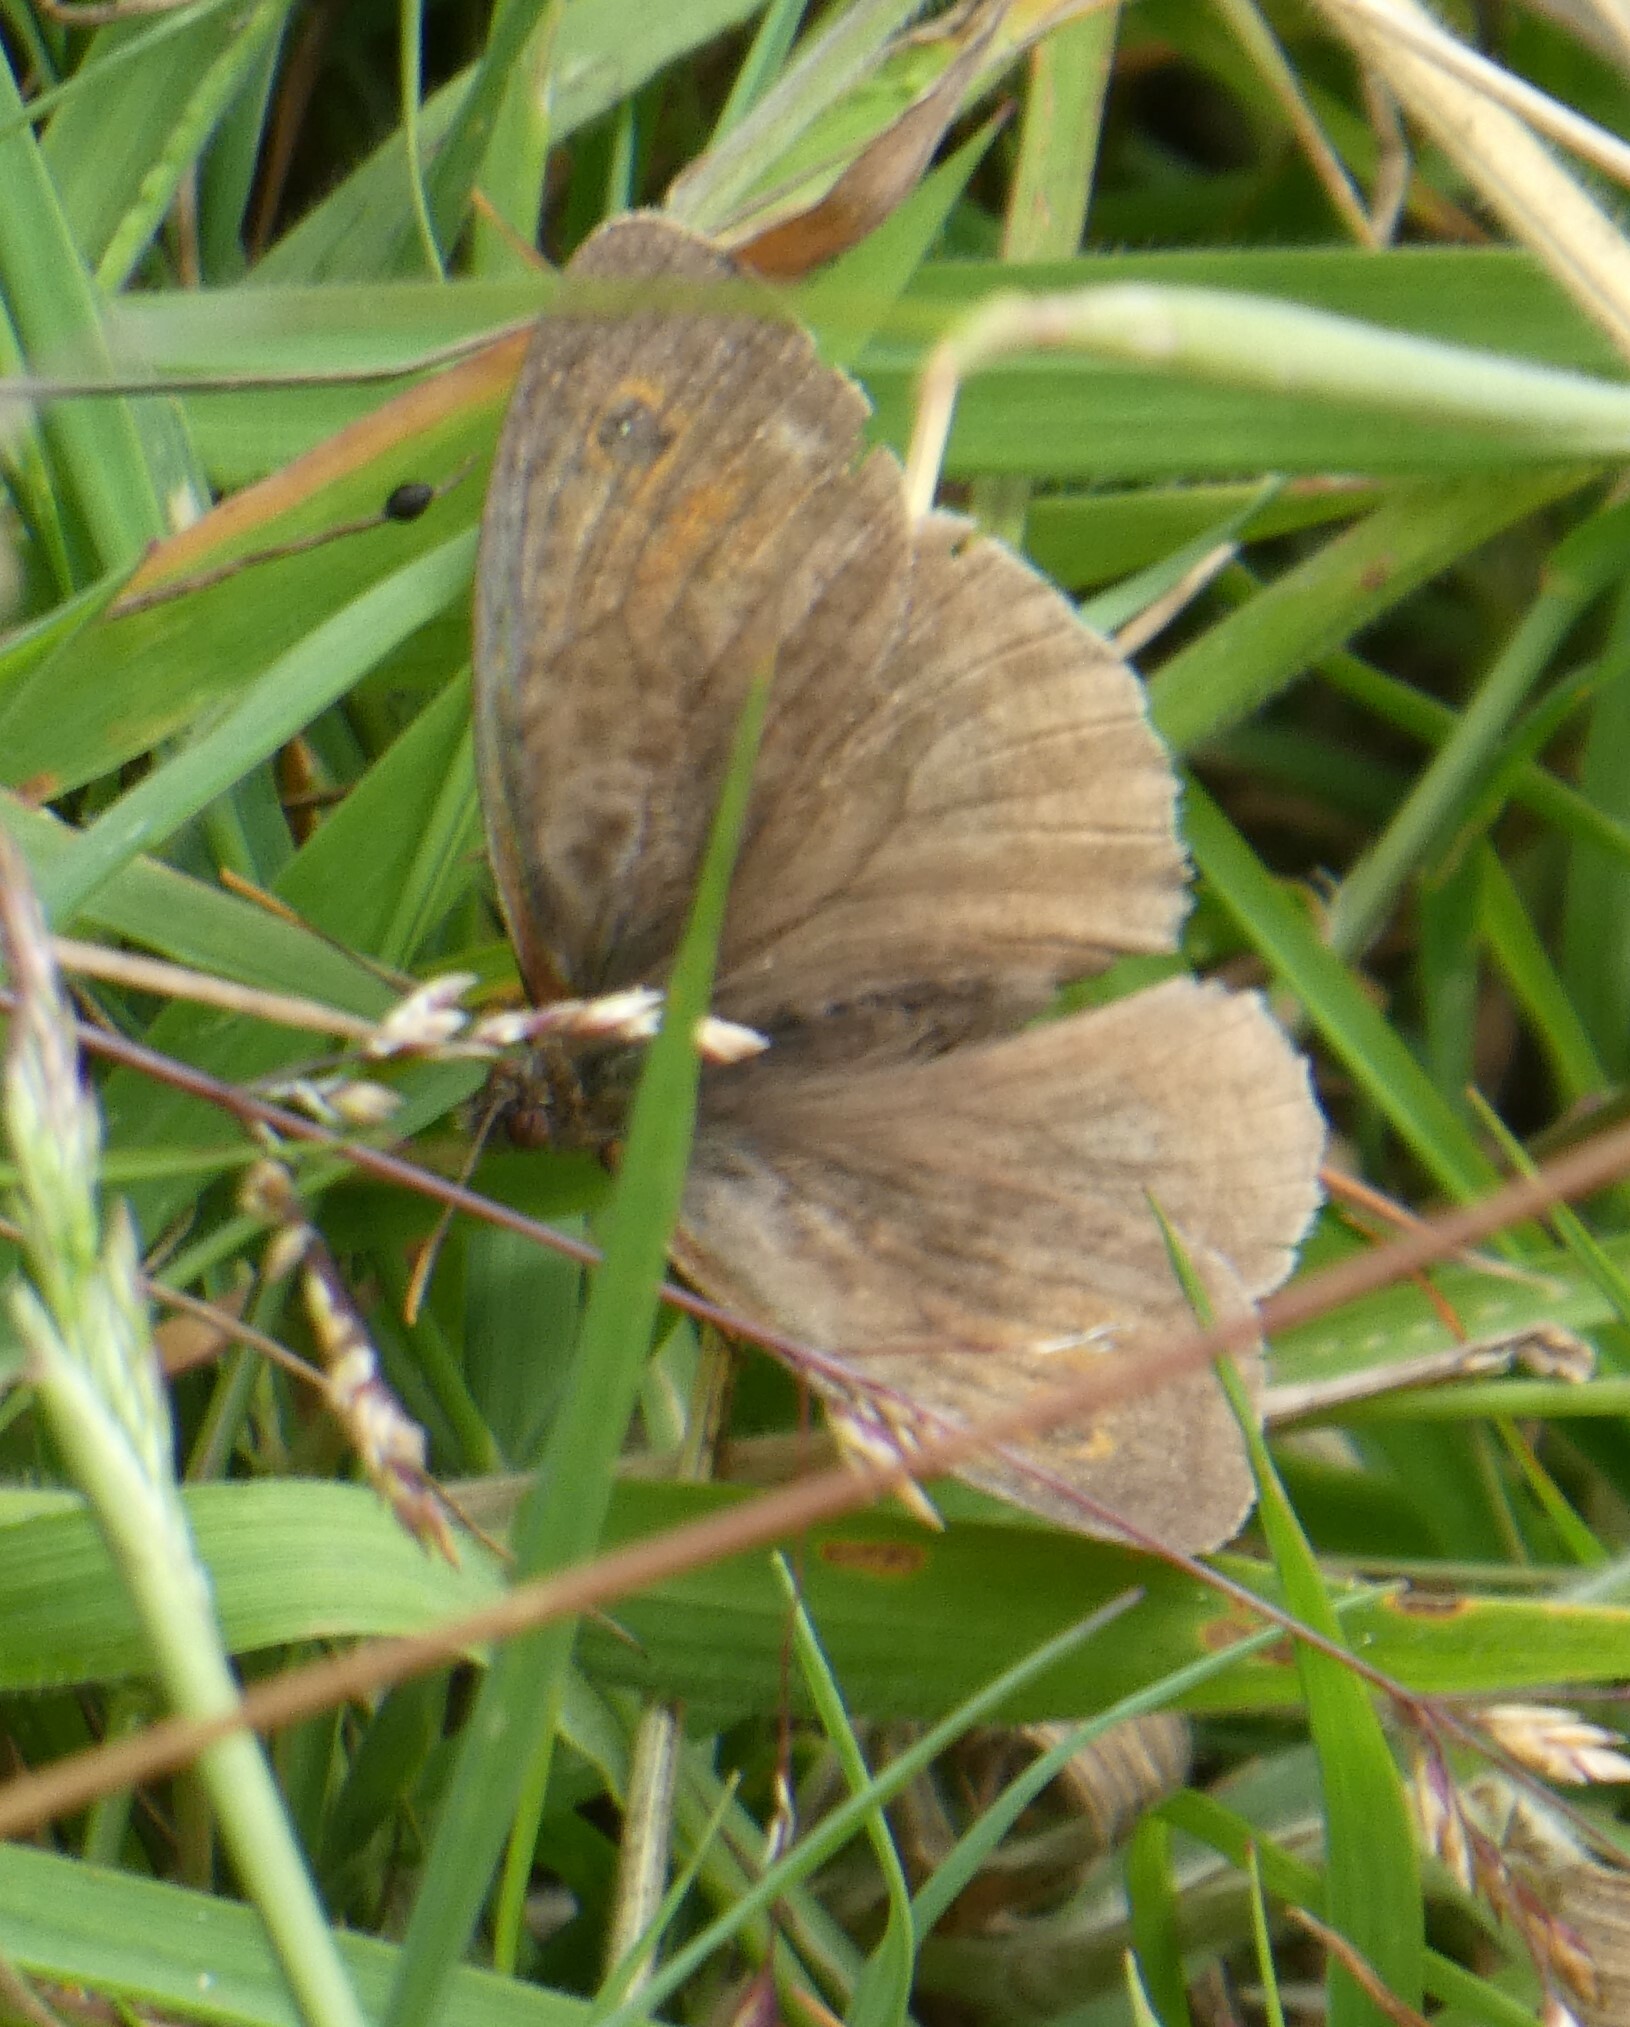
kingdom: Animalia
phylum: Arthropoda
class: Insecta
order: Lepidoptera
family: Nymphalidae
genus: Maniola
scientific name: Maniola jurtina
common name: Meadow brown
